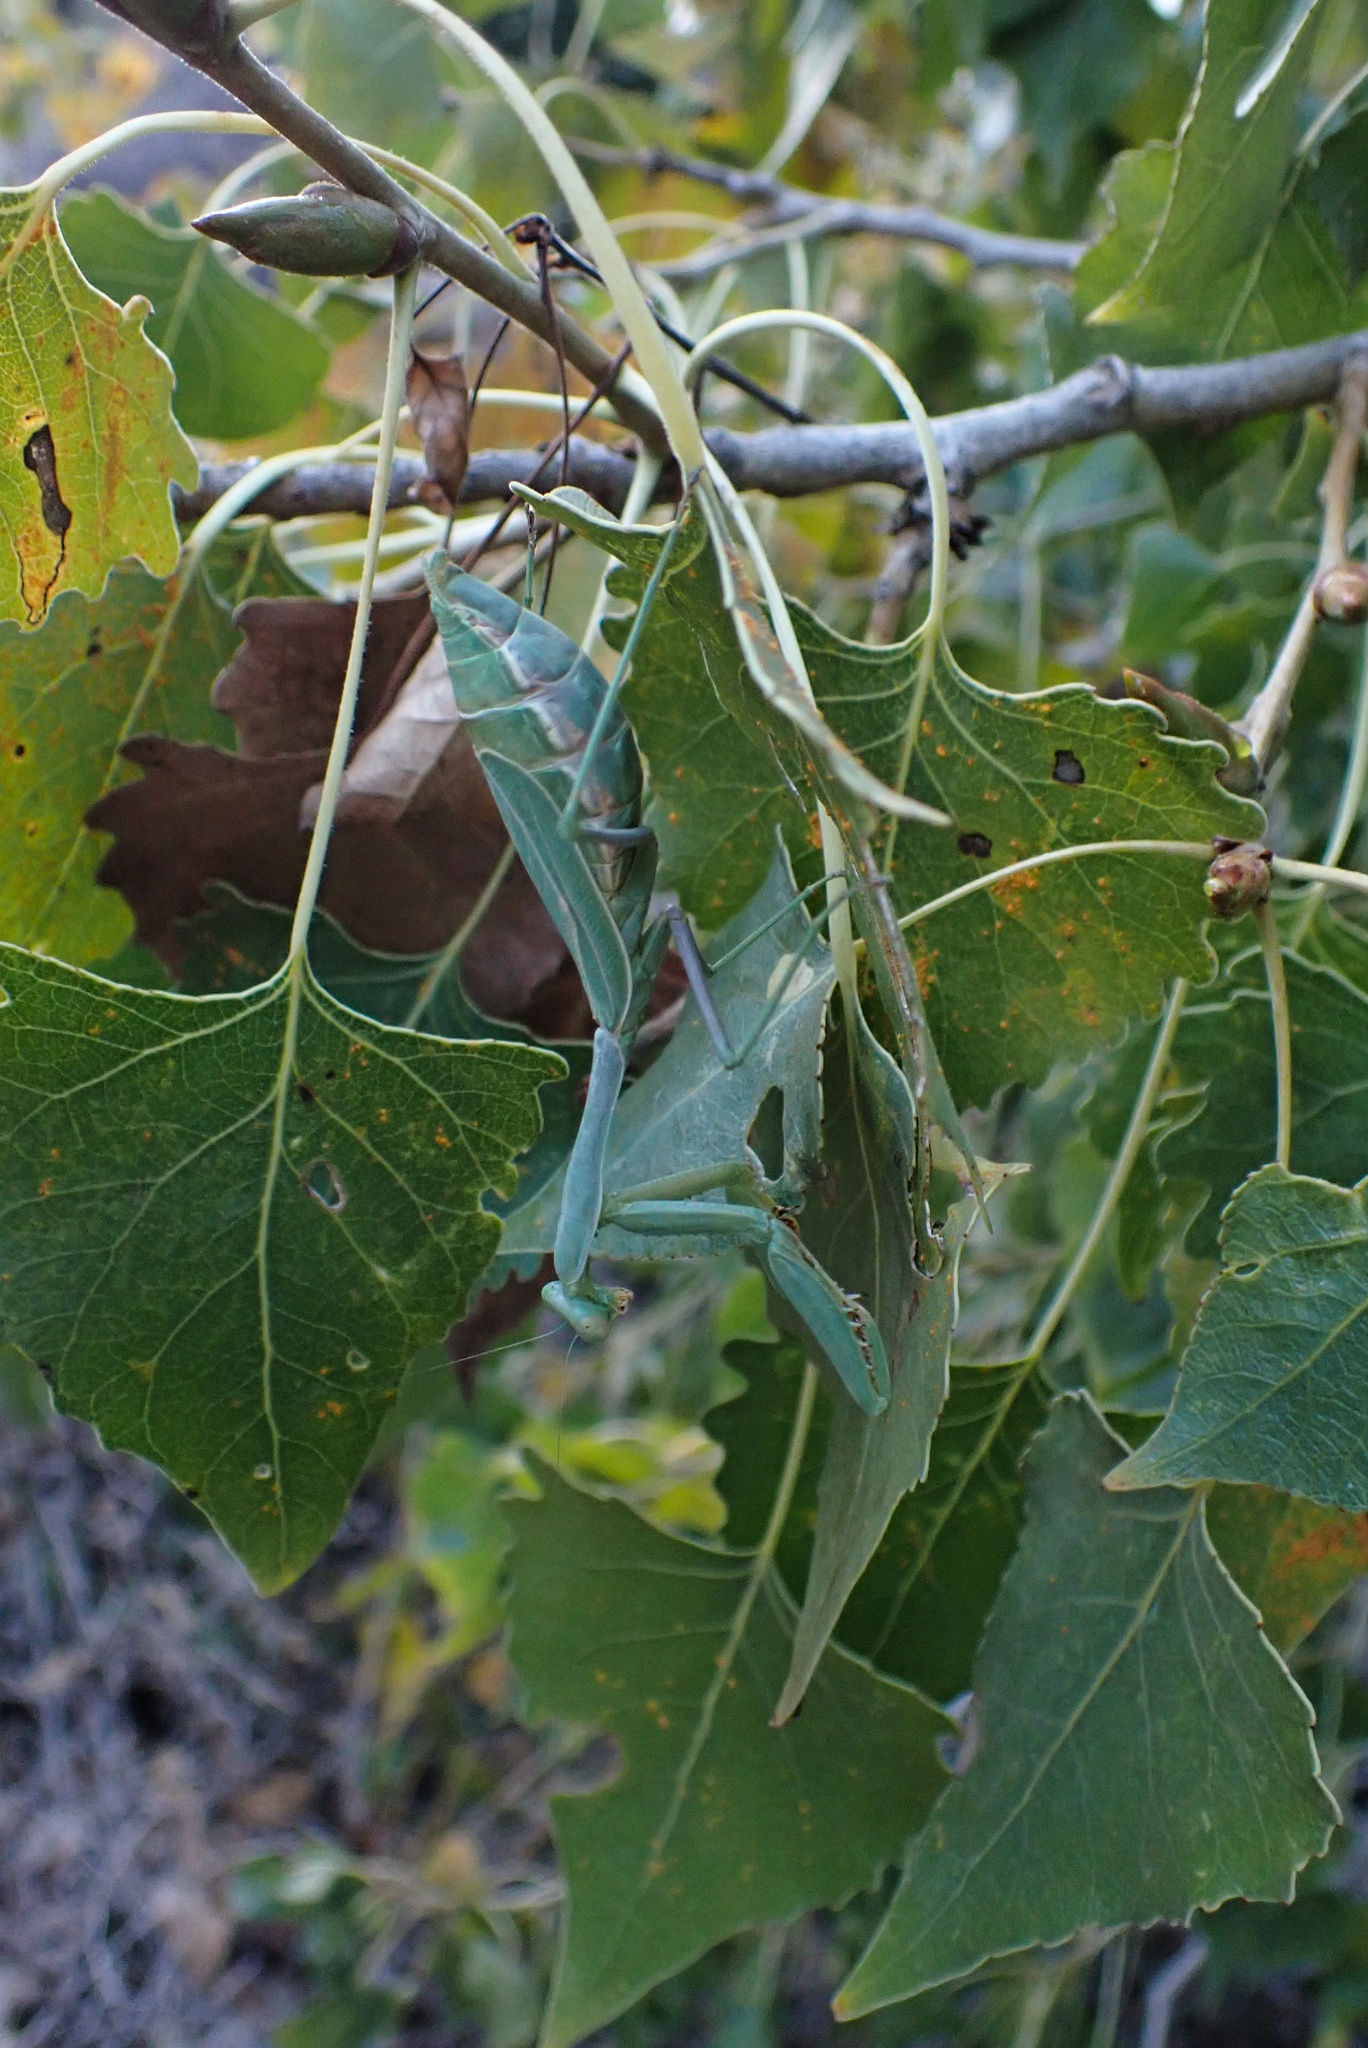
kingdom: Animalia
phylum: Arthropoda
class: Insecta
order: Mantodea
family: Mantidae
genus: Stagmomantis
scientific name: Stagmomantis limbata
